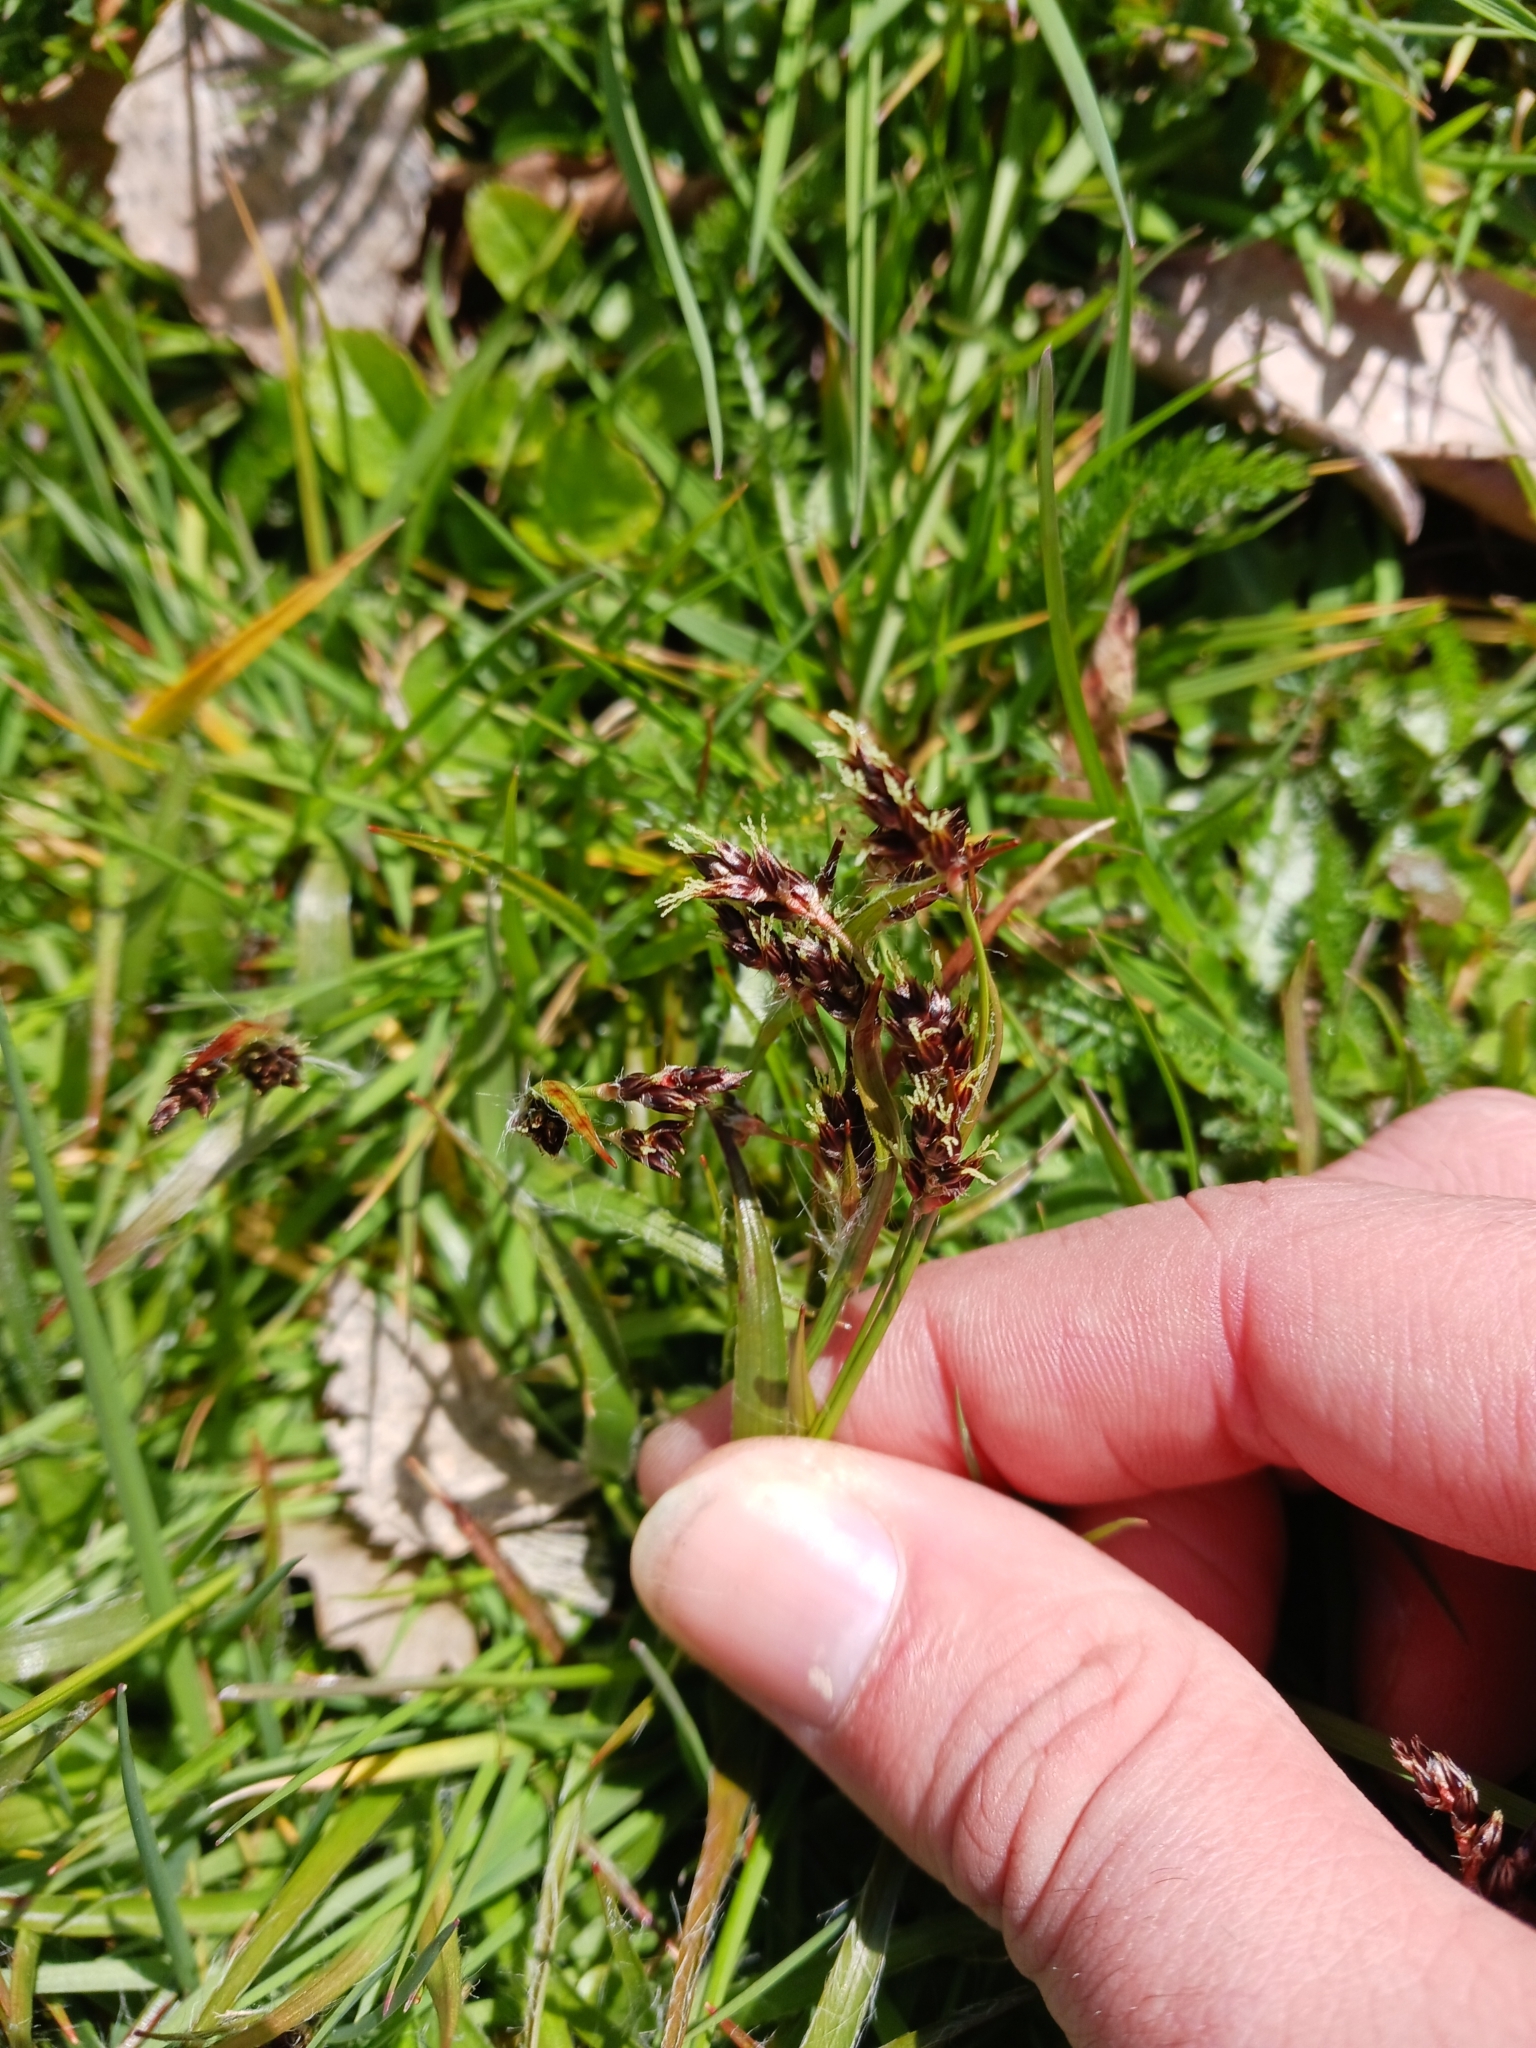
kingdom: Plantae
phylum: Tracheophyta
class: Liliopsida
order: Poales
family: Juncaceae
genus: Luzula
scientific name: Luzula campestris
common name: Field wood-rush
